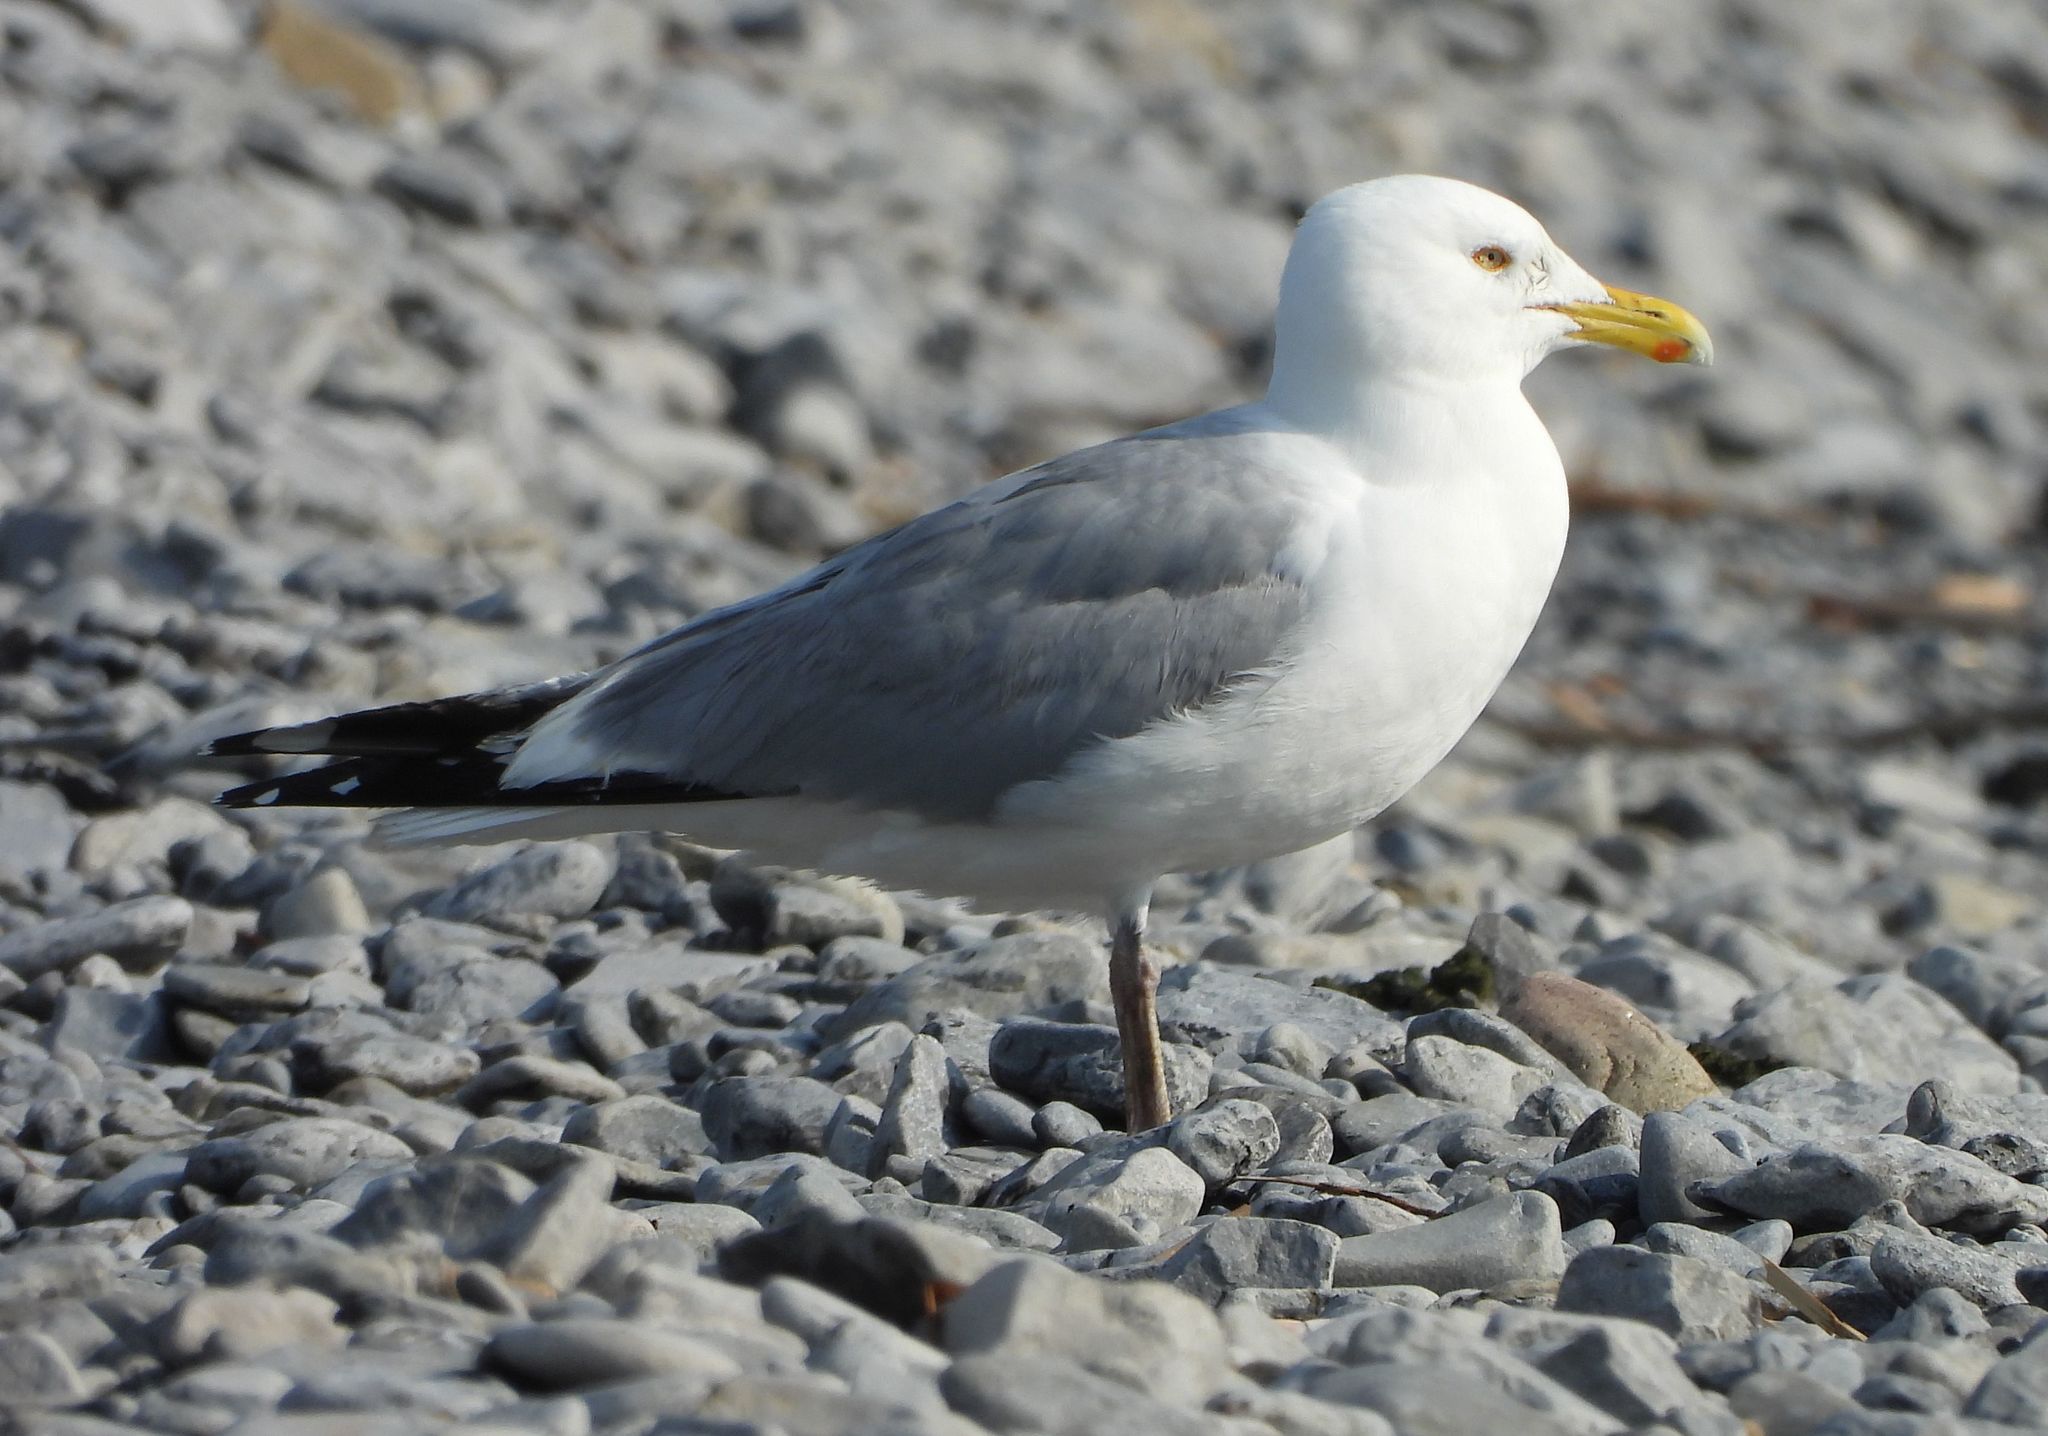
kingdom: Animalia
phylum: Chordata
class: Aves
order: Charadriiformes
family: Laridae
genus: Larus
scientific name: Larus argentatus
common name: Herring gull
